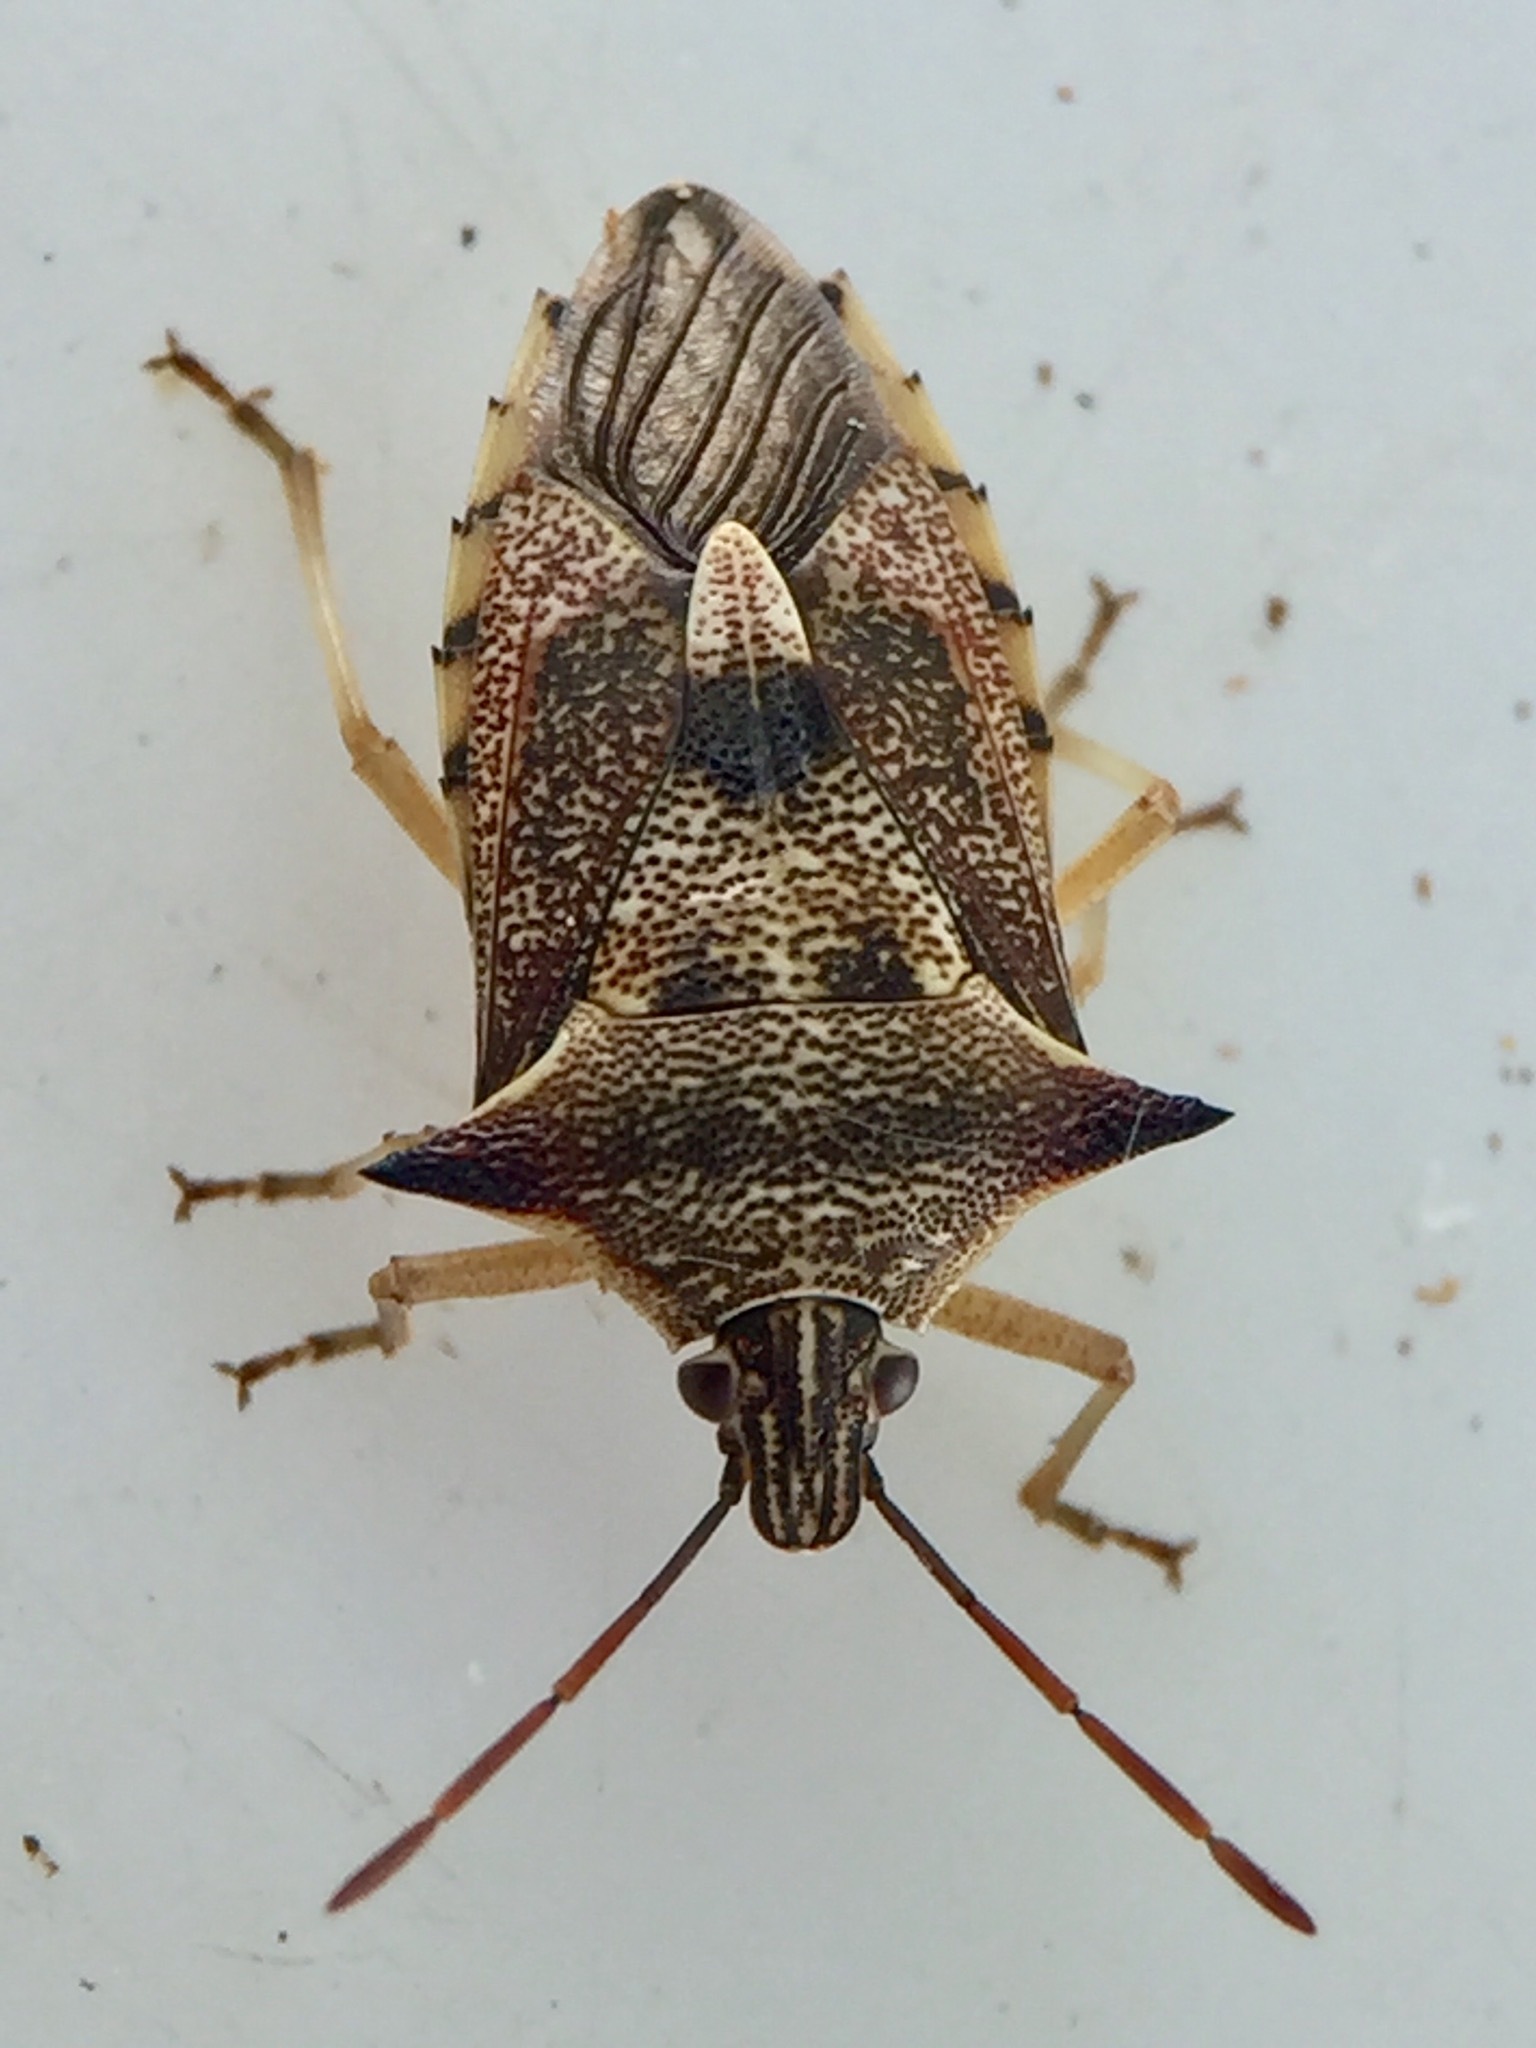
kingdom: Animalia
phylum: Arthropoda
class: Insecta
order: Hemiptera
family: Pentatomidae
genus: Oechalia
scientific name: Oechalia schellenbergii
